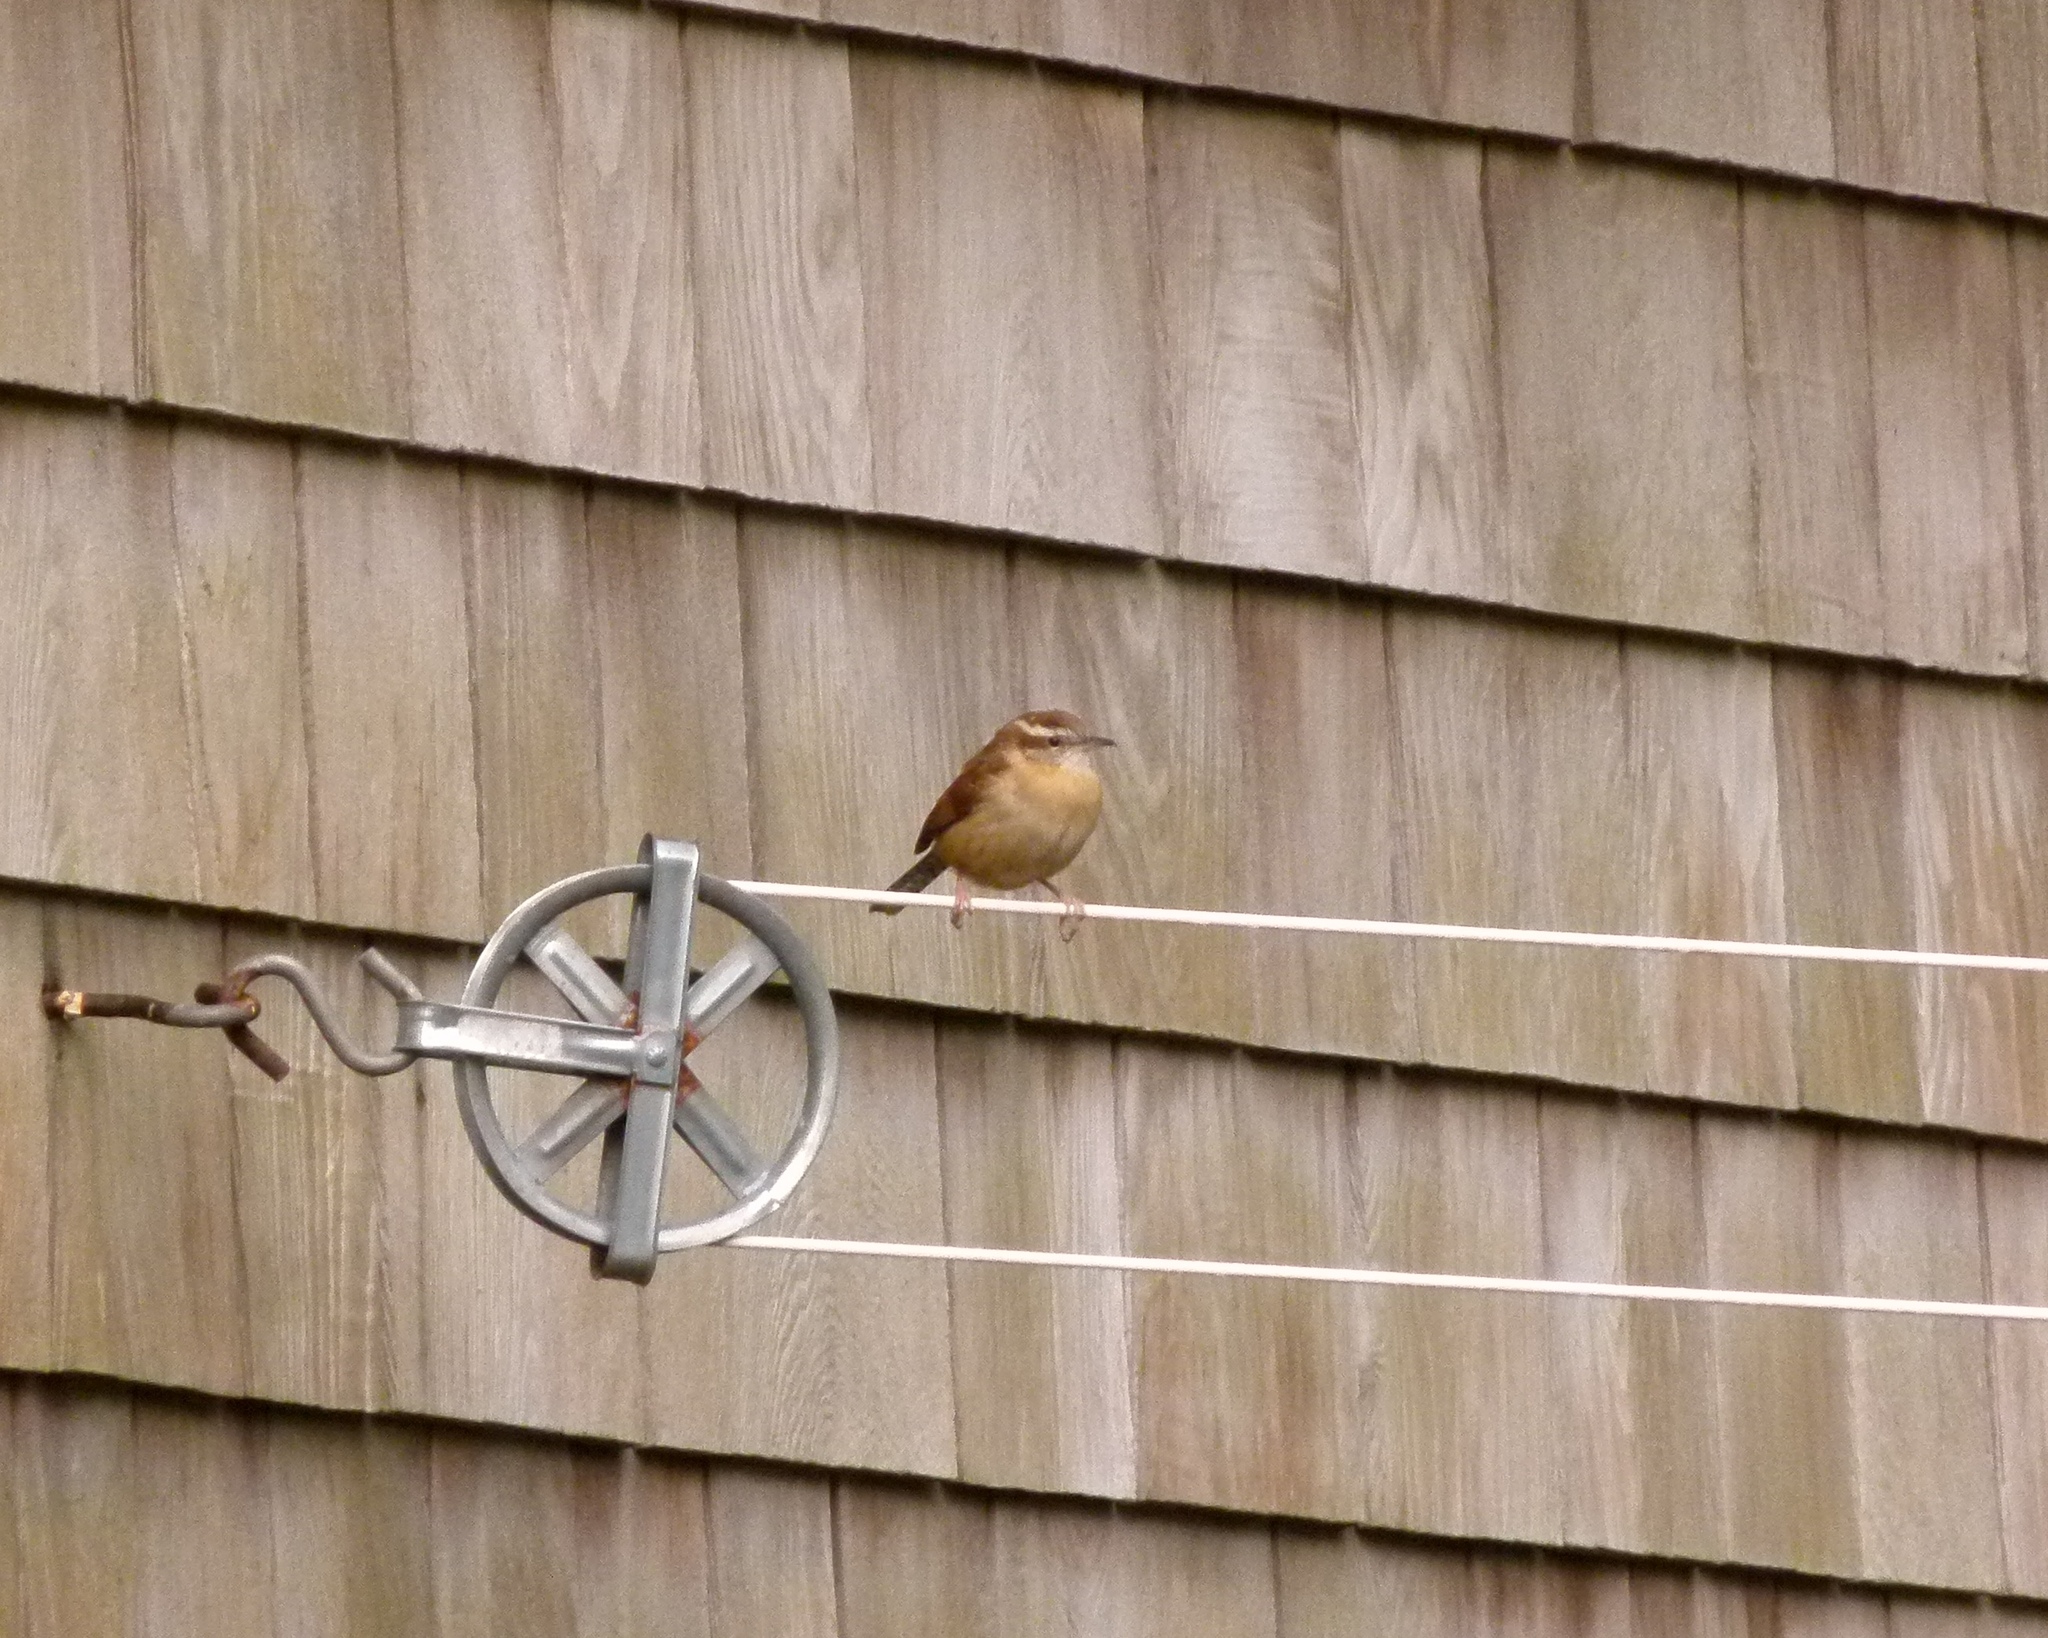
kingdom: Animalia
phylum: Chordata
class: Aves
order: Passeriformes
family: Troglodytidae
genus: Thryothorus
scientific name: Thryothorus ludovicianus
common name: Carolina wren
